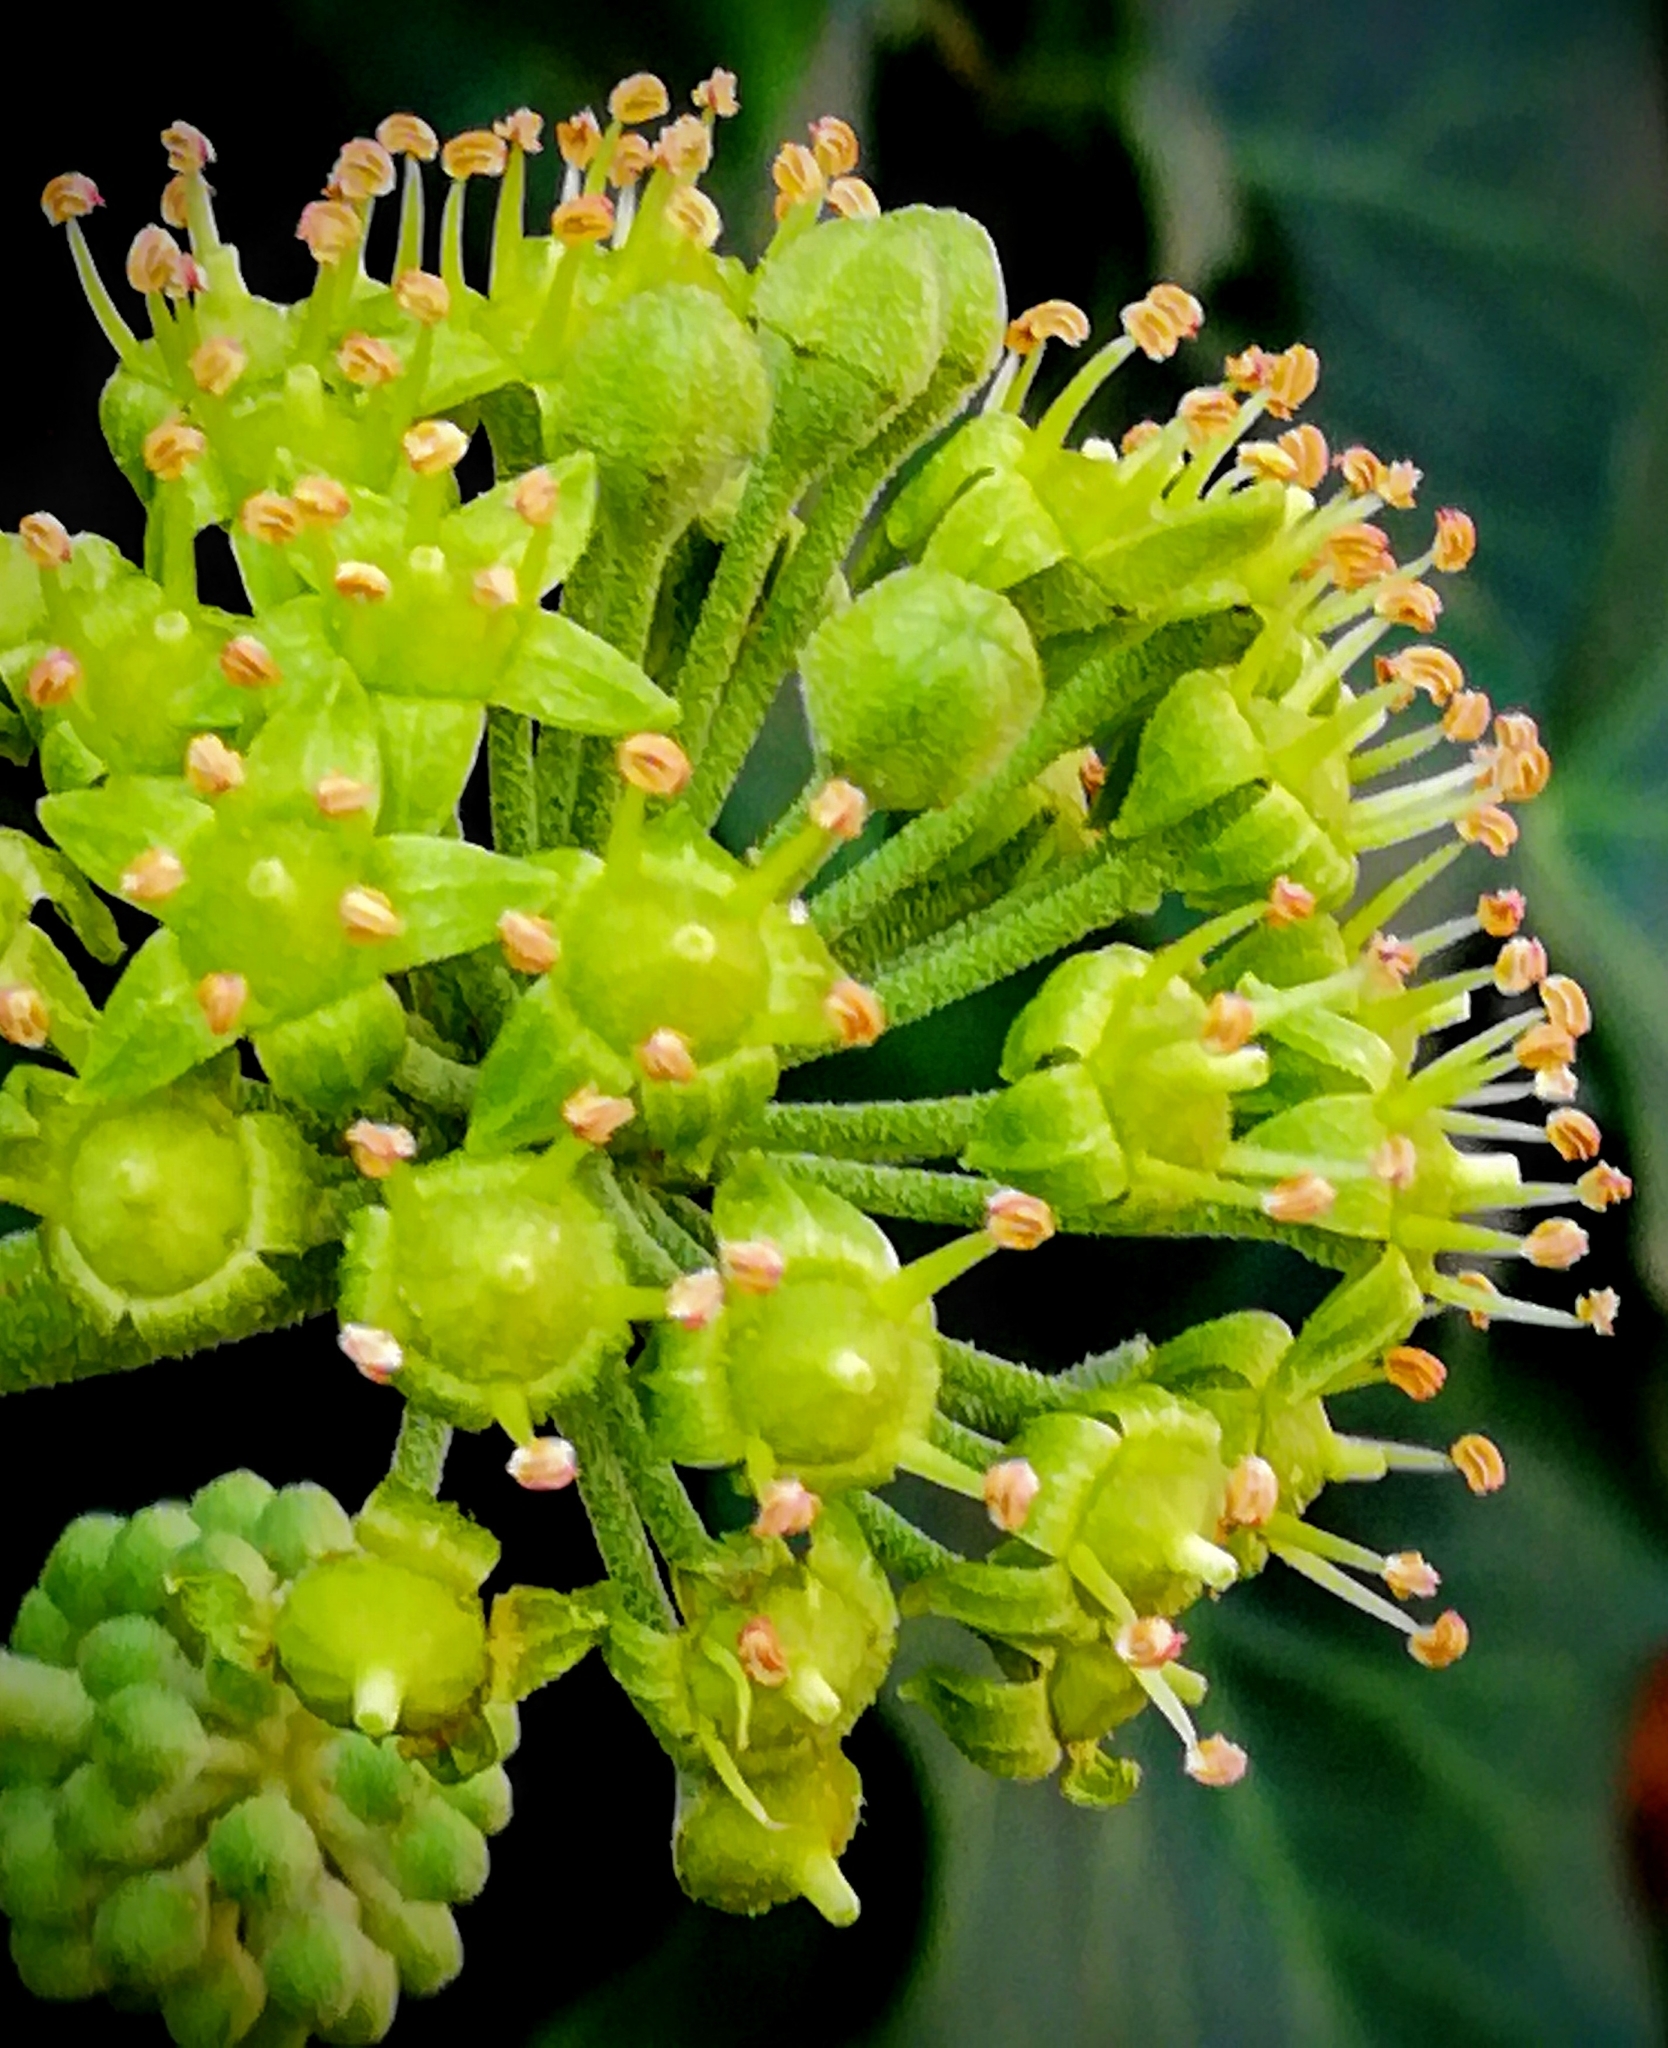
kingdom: Plantae
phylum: Tracheophyta
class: Magnoliopsida
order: Apiales
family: Araliaceae
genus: Hedera
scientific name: Hedera helix
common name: Ivy
